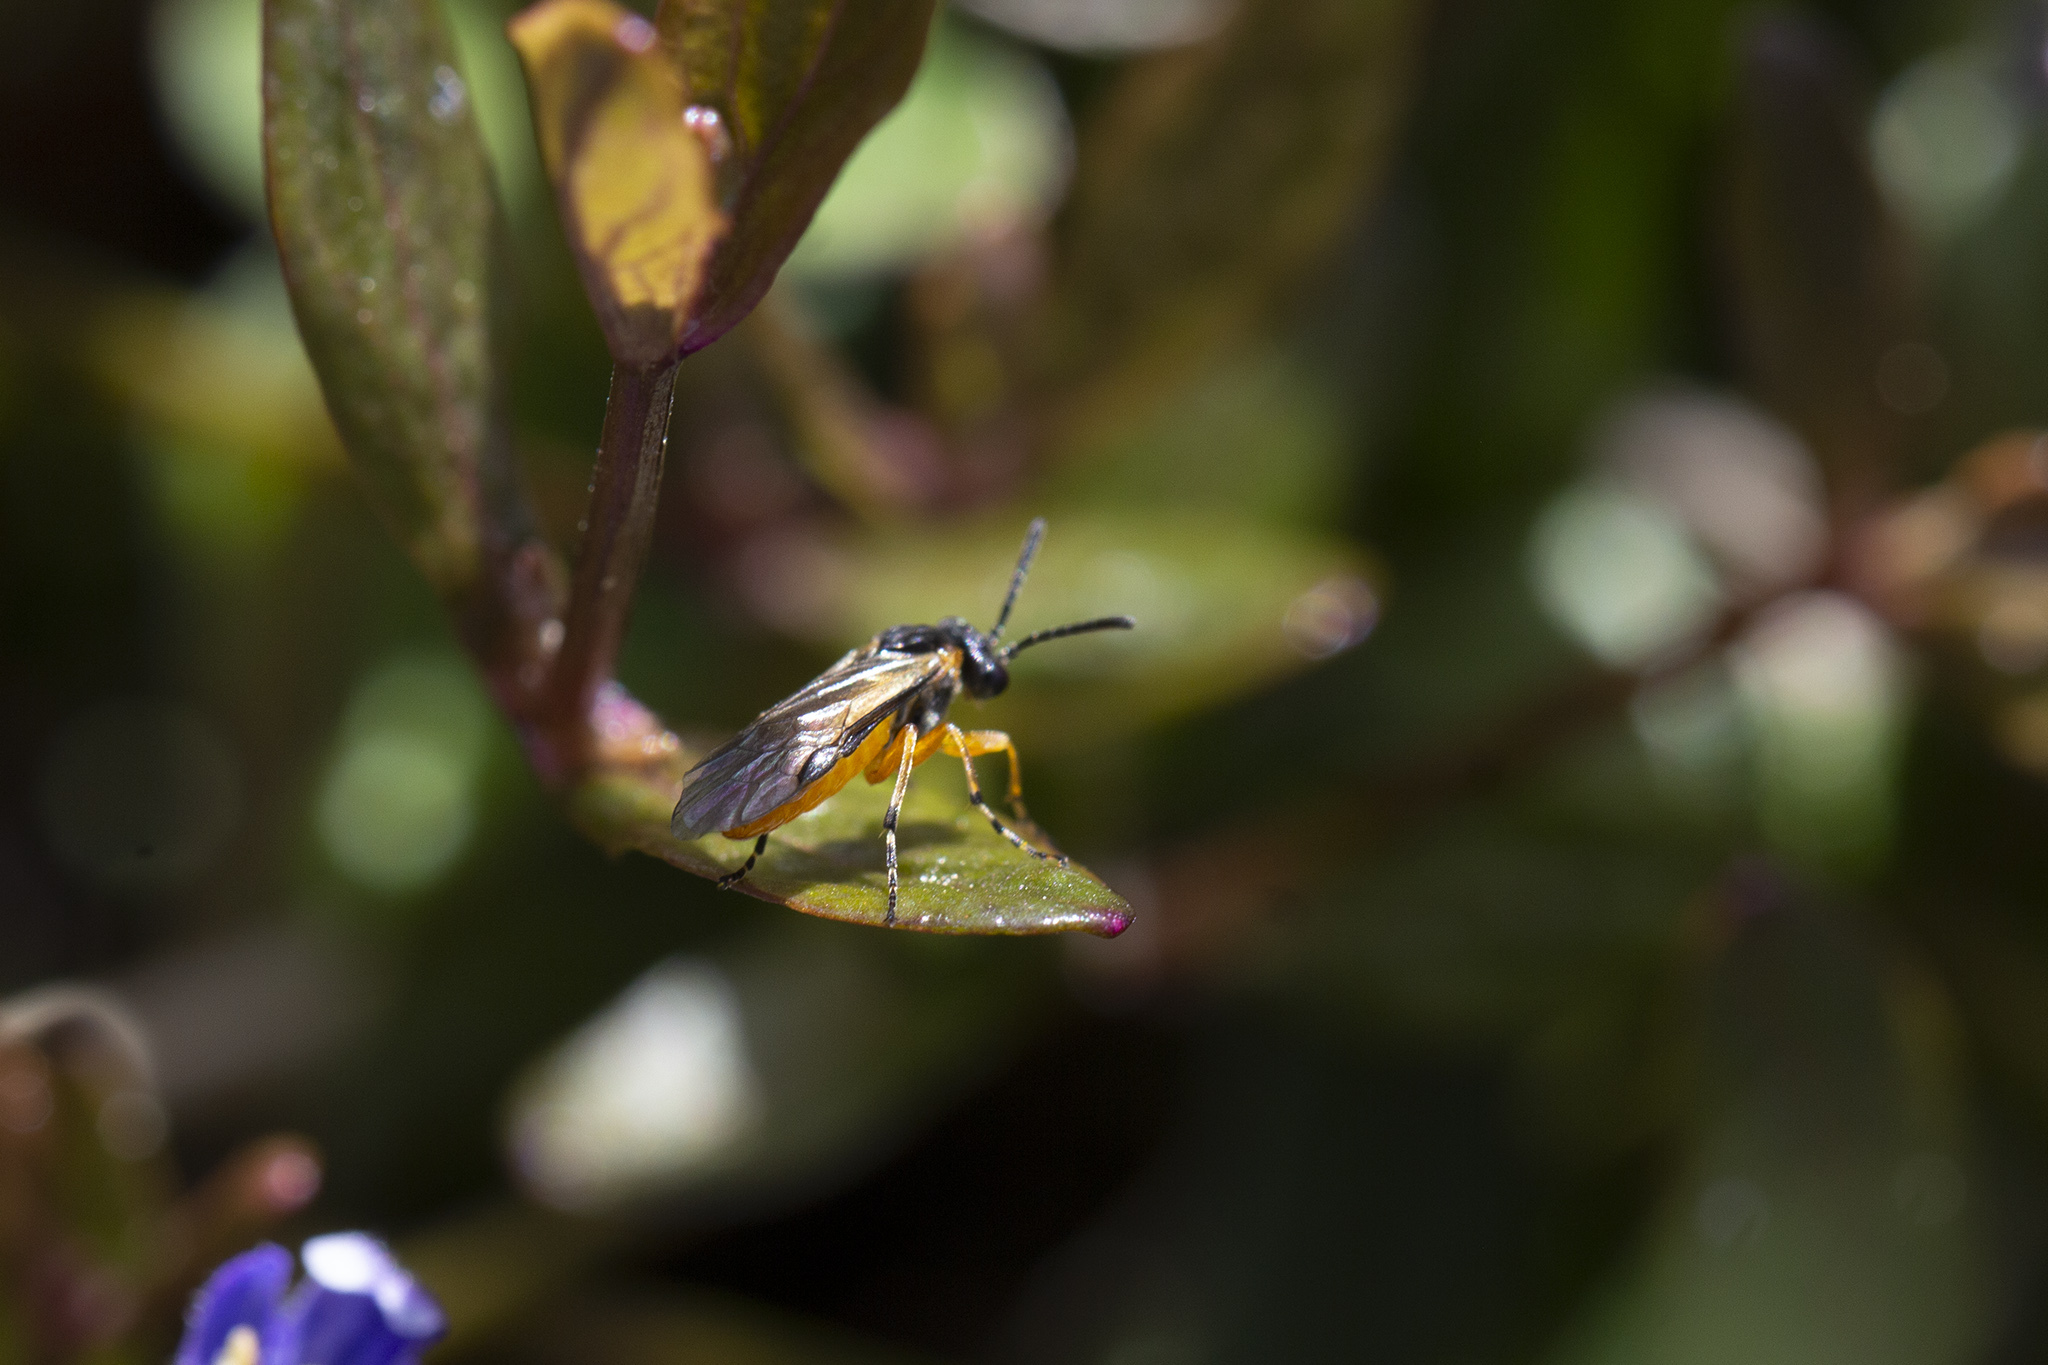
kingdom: Animalia
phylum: Arthropoda
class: Insecta
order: Hymenoptera
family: Tenthredinidae
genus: Athalia
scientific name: Athalia cordata
